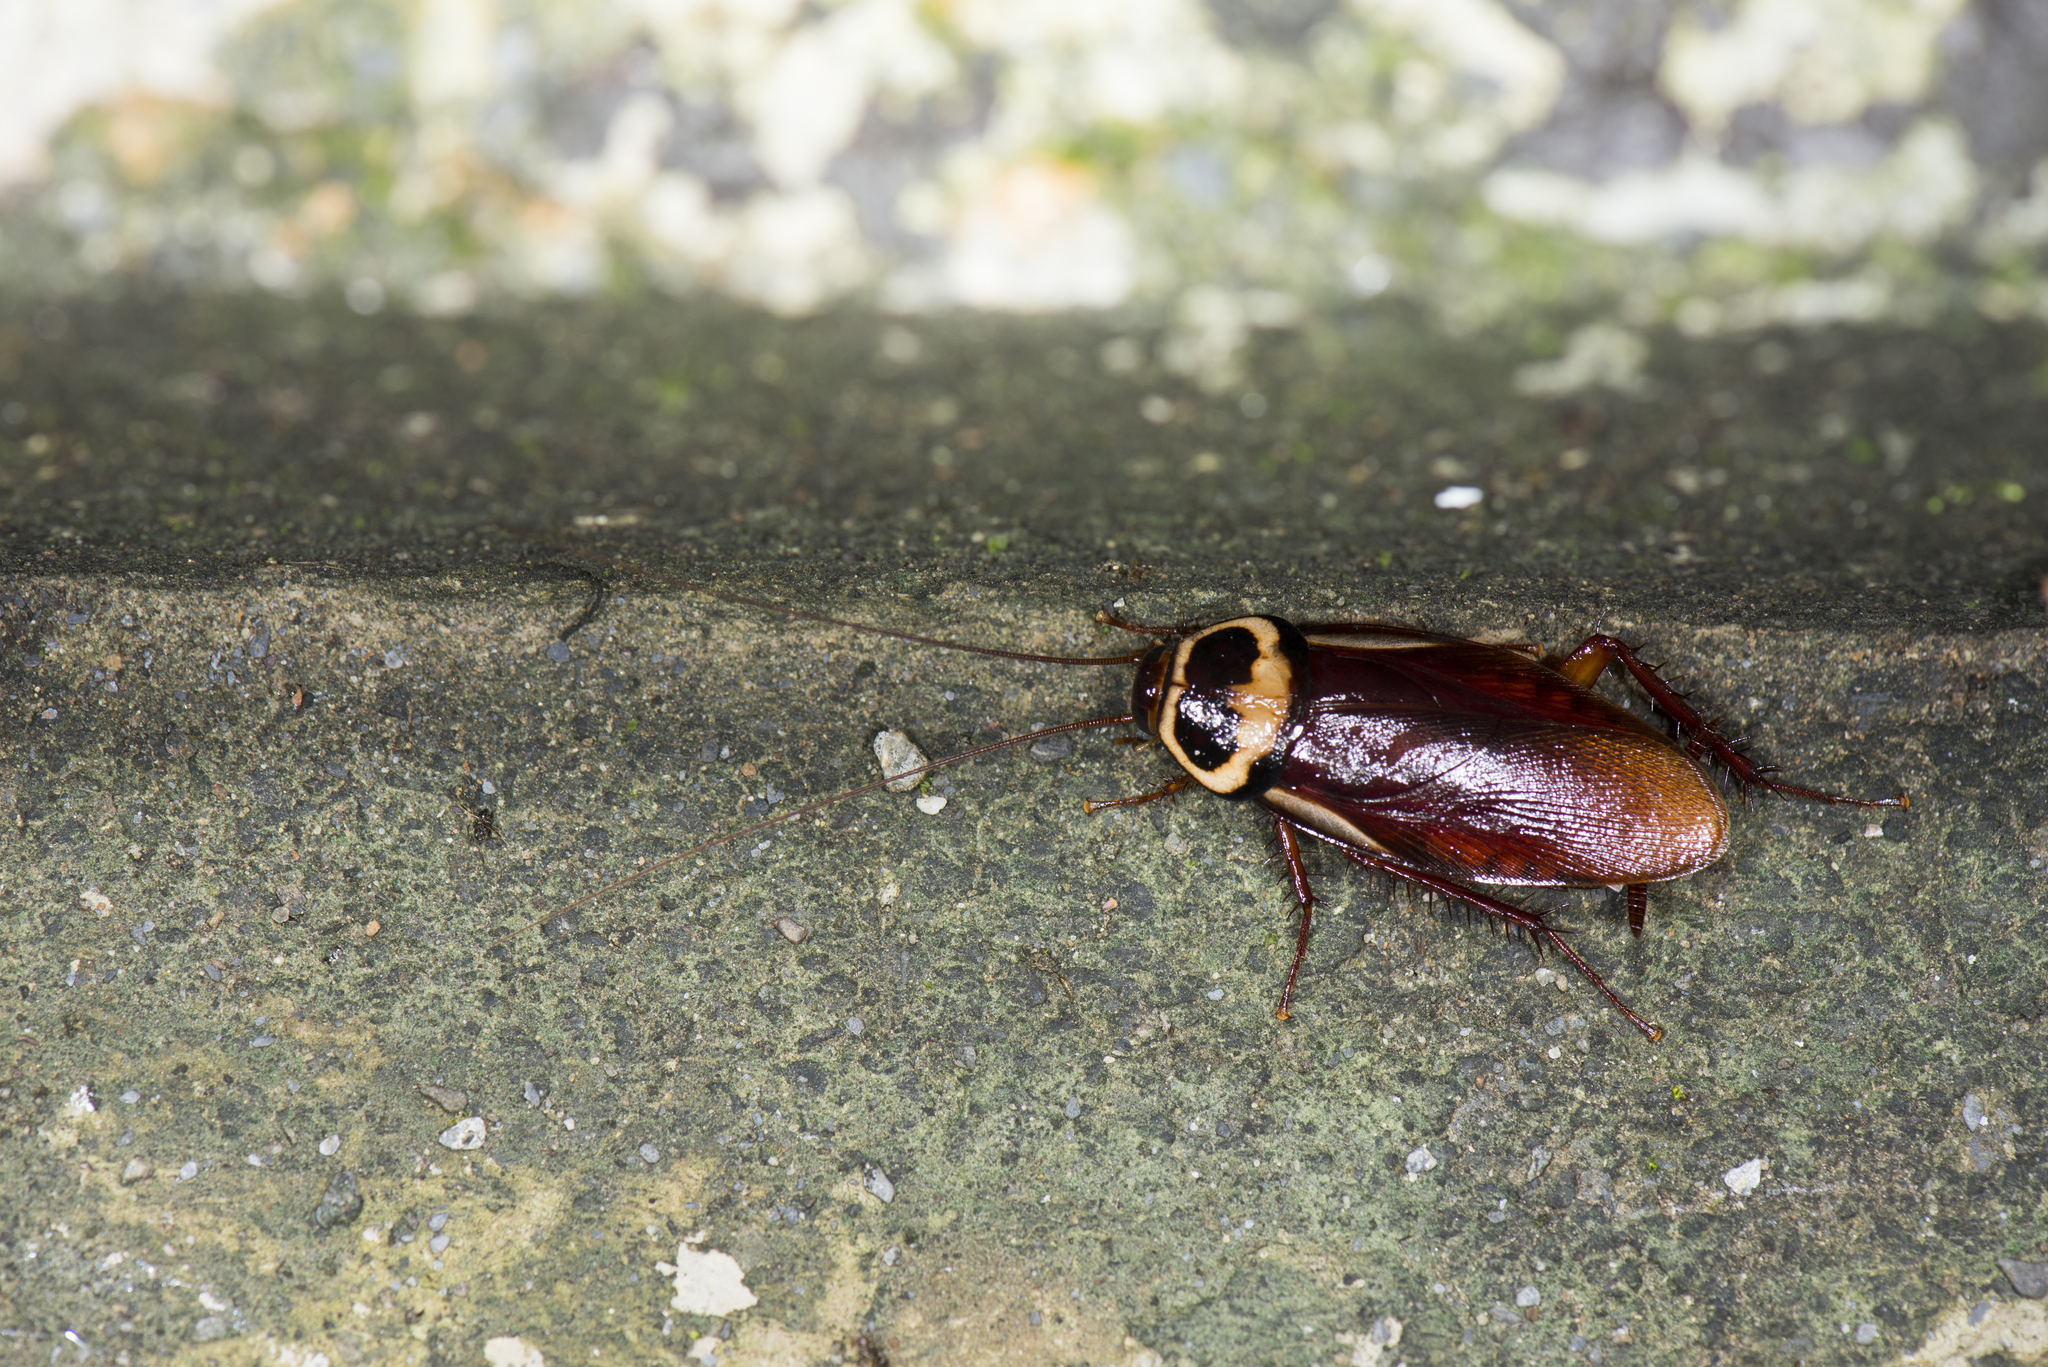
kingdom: Animalia
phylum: Arthropoda
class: Insecta
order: Blattodea
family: Blattidae
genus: Periplaneta
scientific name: Periplaneta australasiae
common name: Australian cockroach
